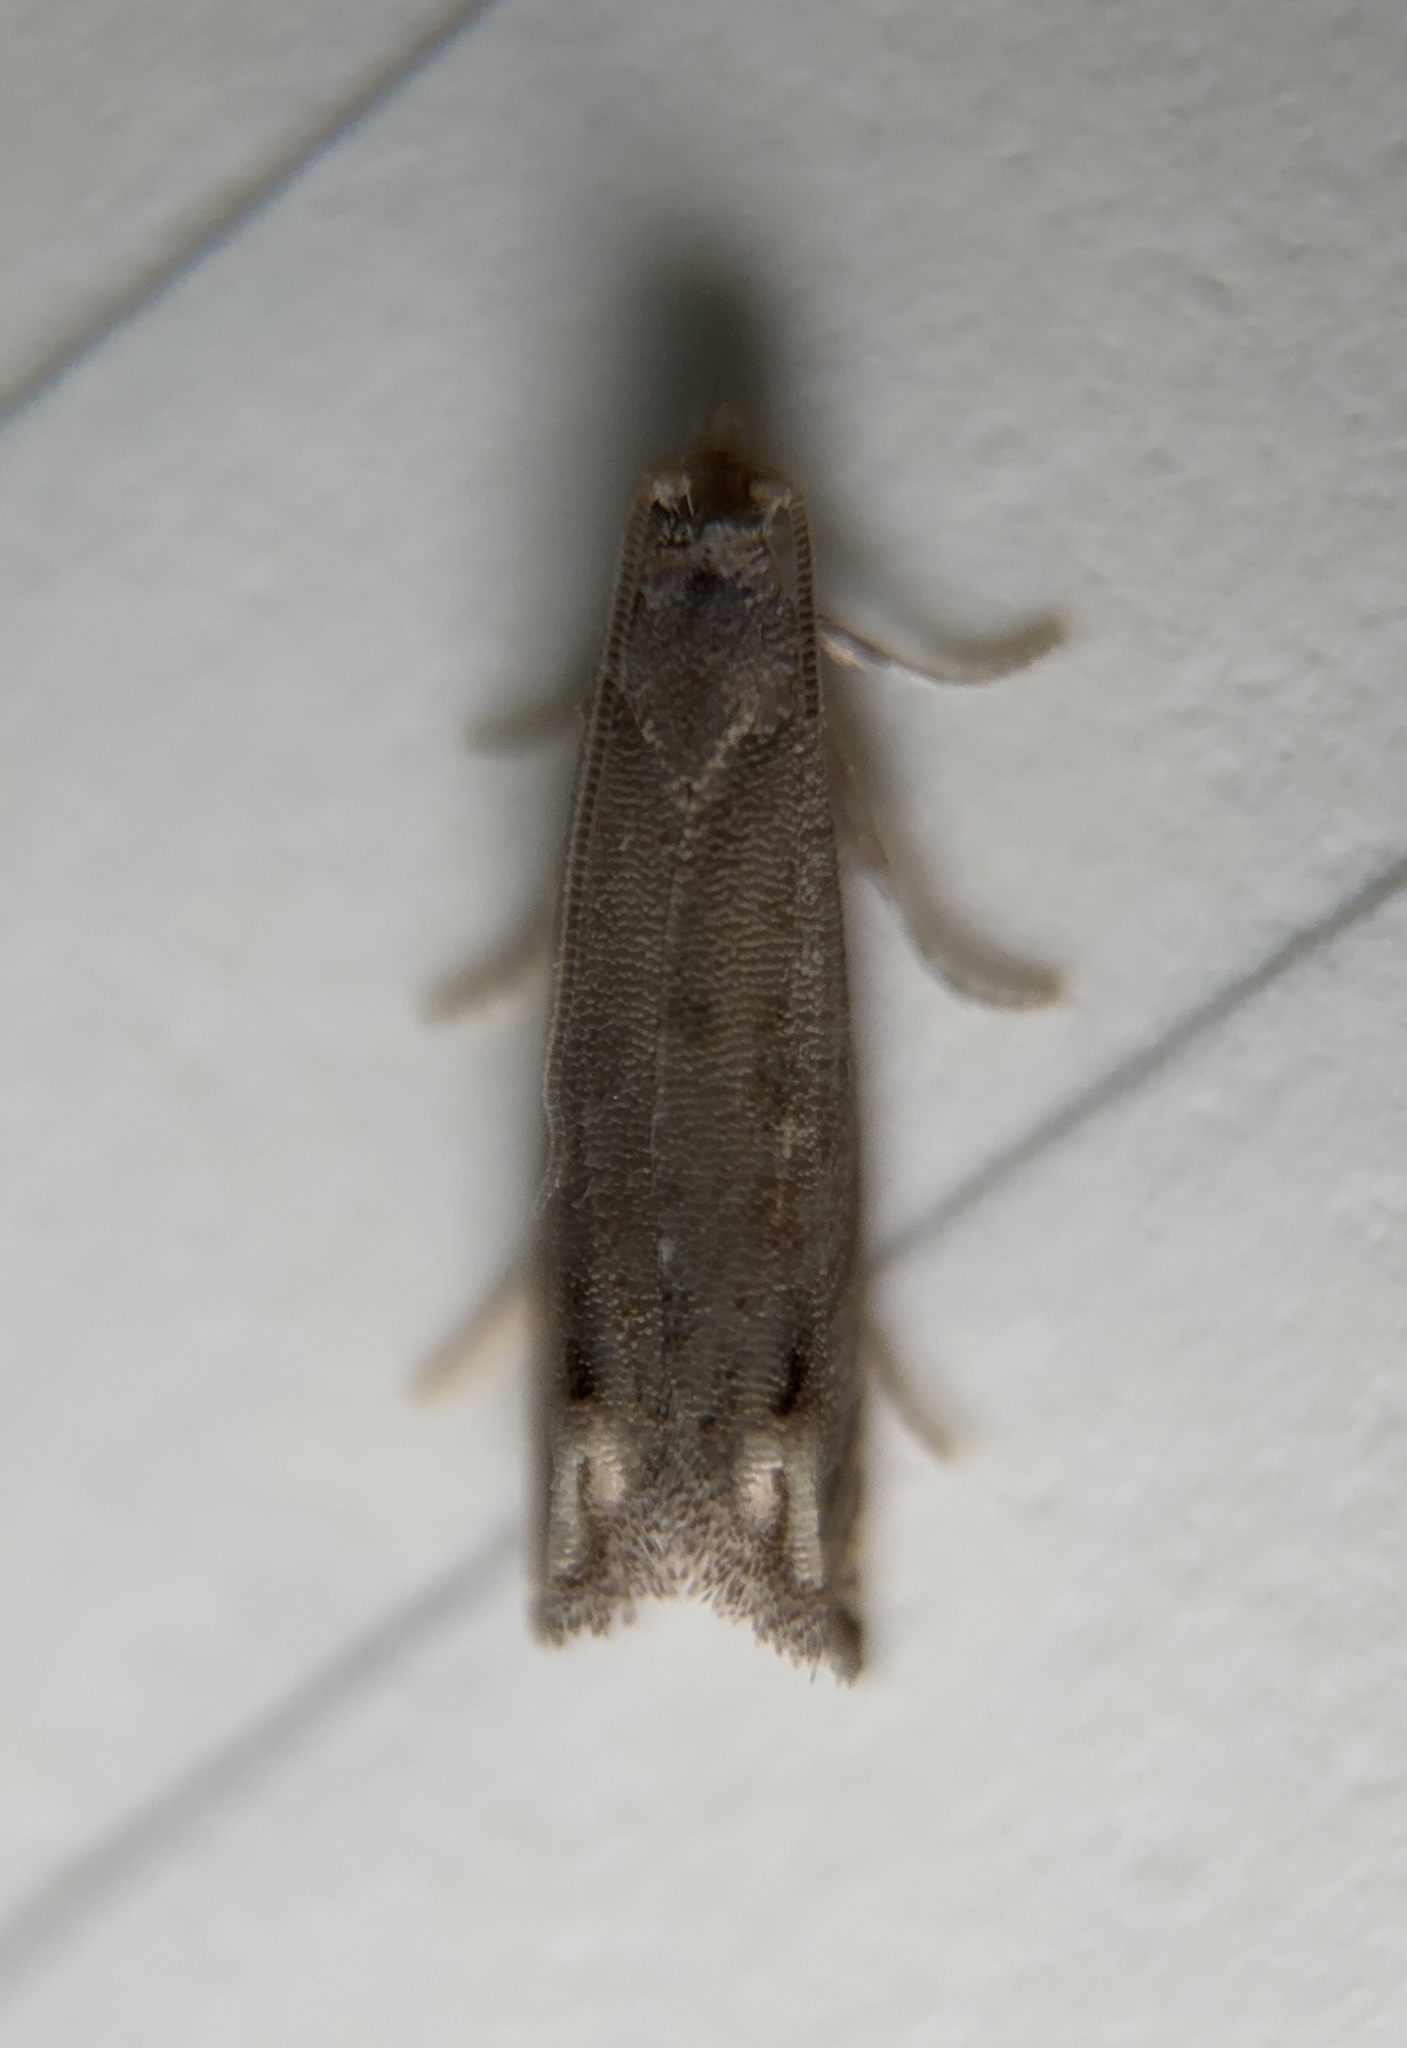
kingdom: Animalia
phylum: Arthropoda
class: Insecta
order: Lepidoptera
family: Tortricidae
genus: Epiblema
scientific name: Epiblema strenuana
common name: Ragweed borer moth
